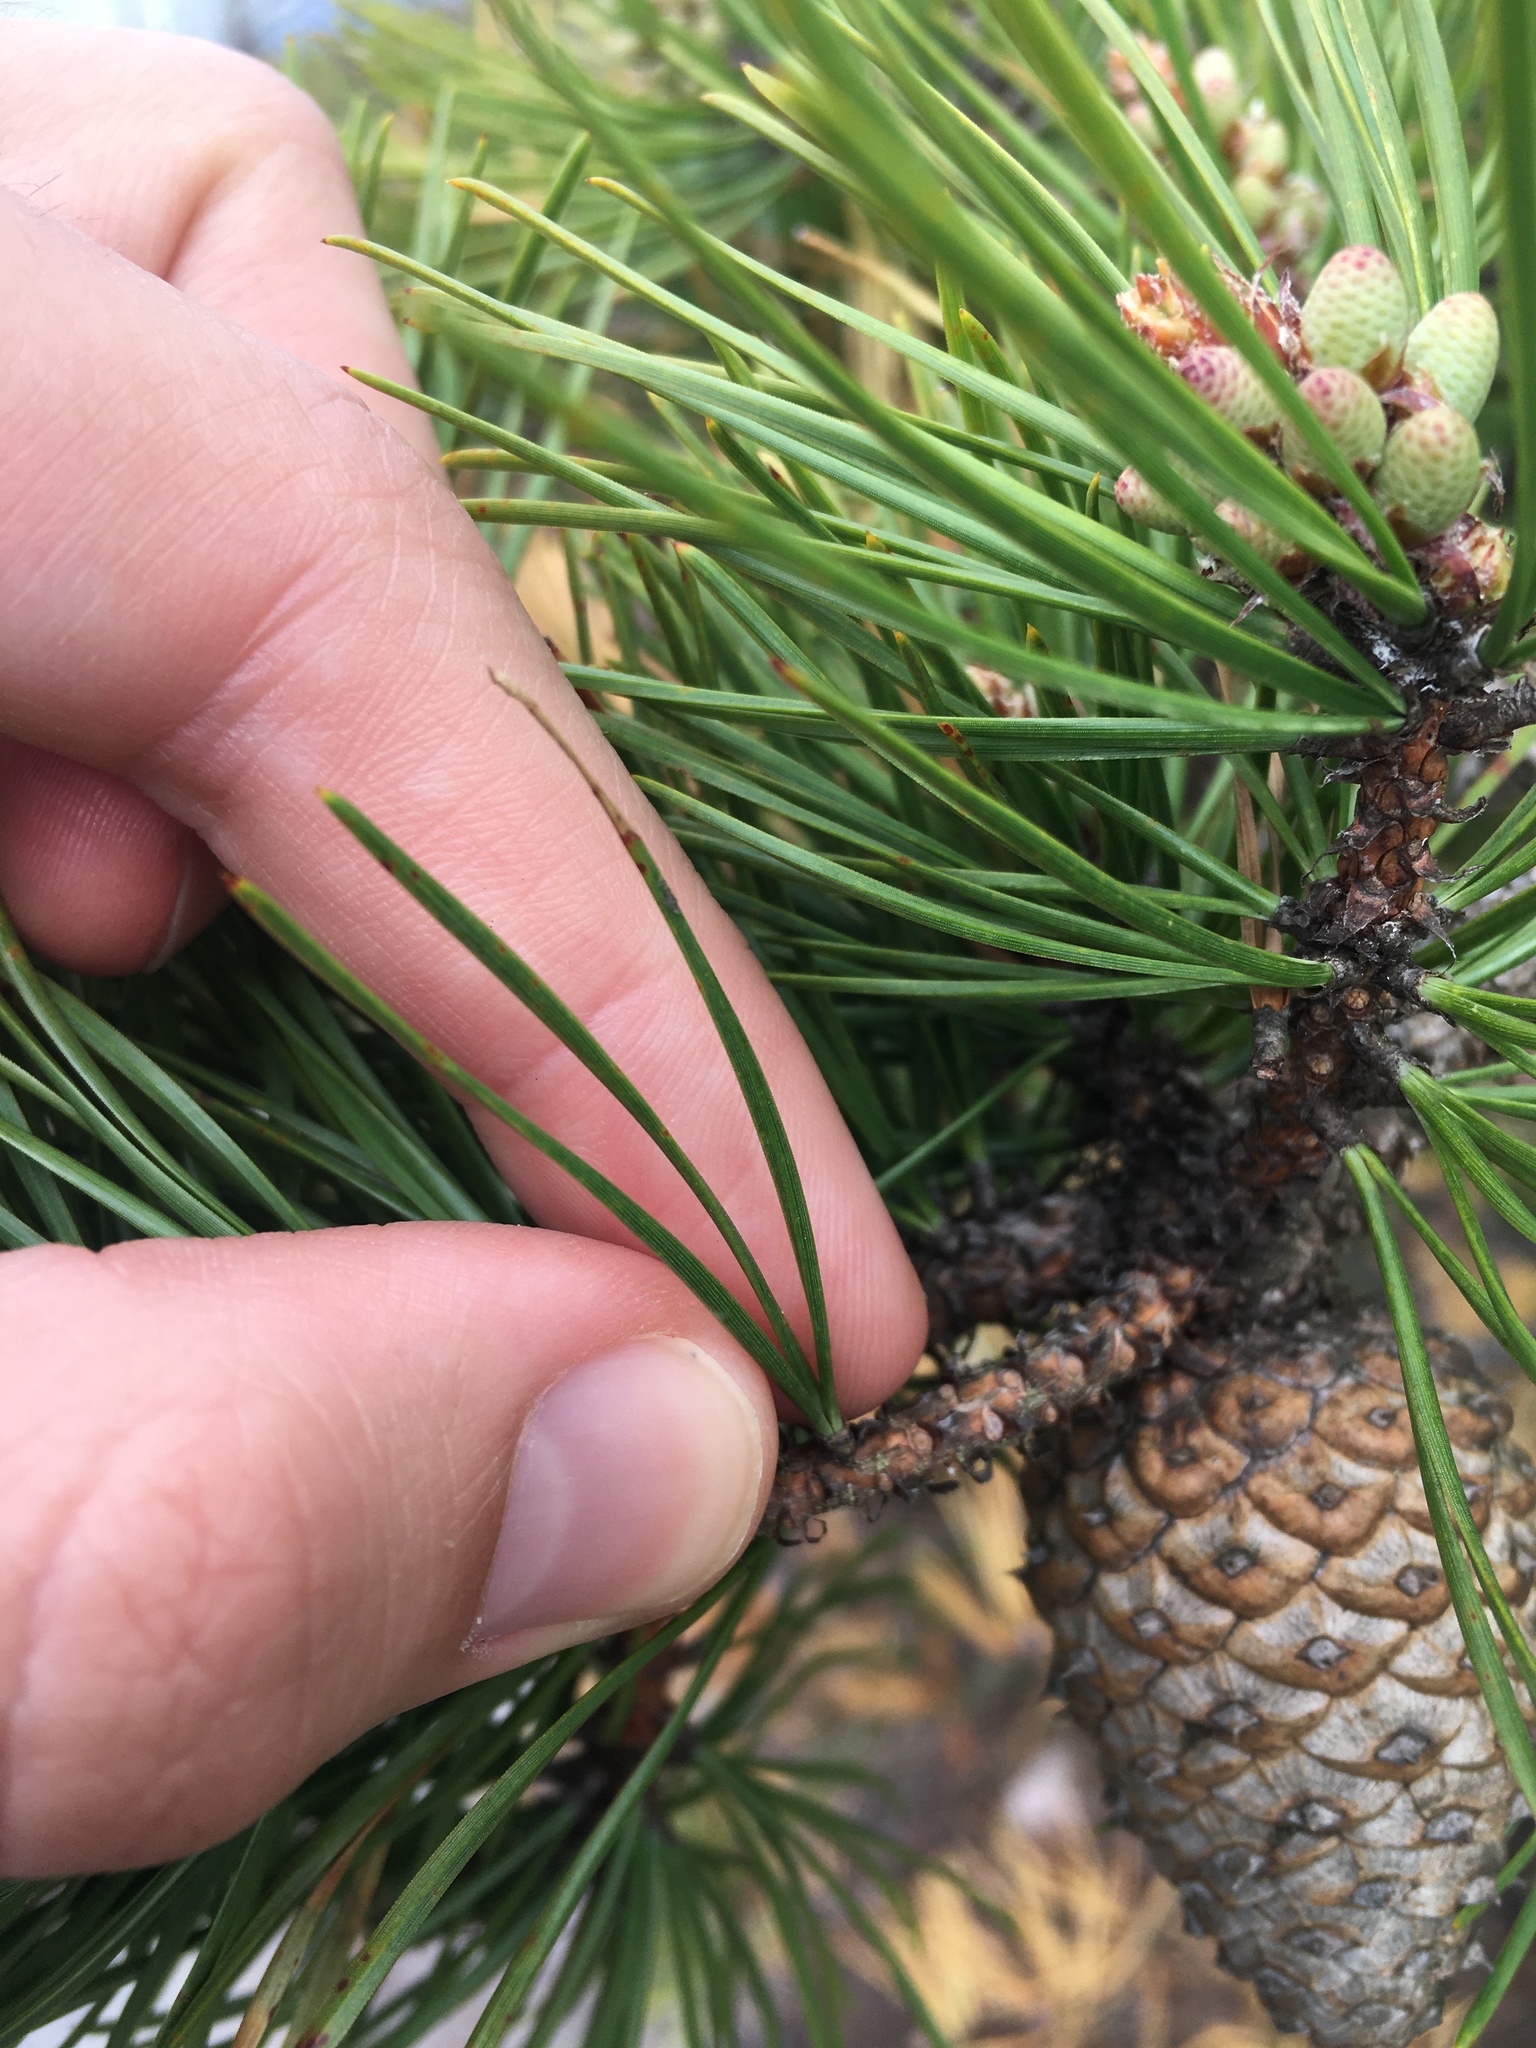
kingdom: Plantae
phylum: Tracheophyta
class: Pinopsida
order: Pinales
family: Pinaceae
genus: Pinus
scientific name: Pinus rigida
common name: Pitch pine
